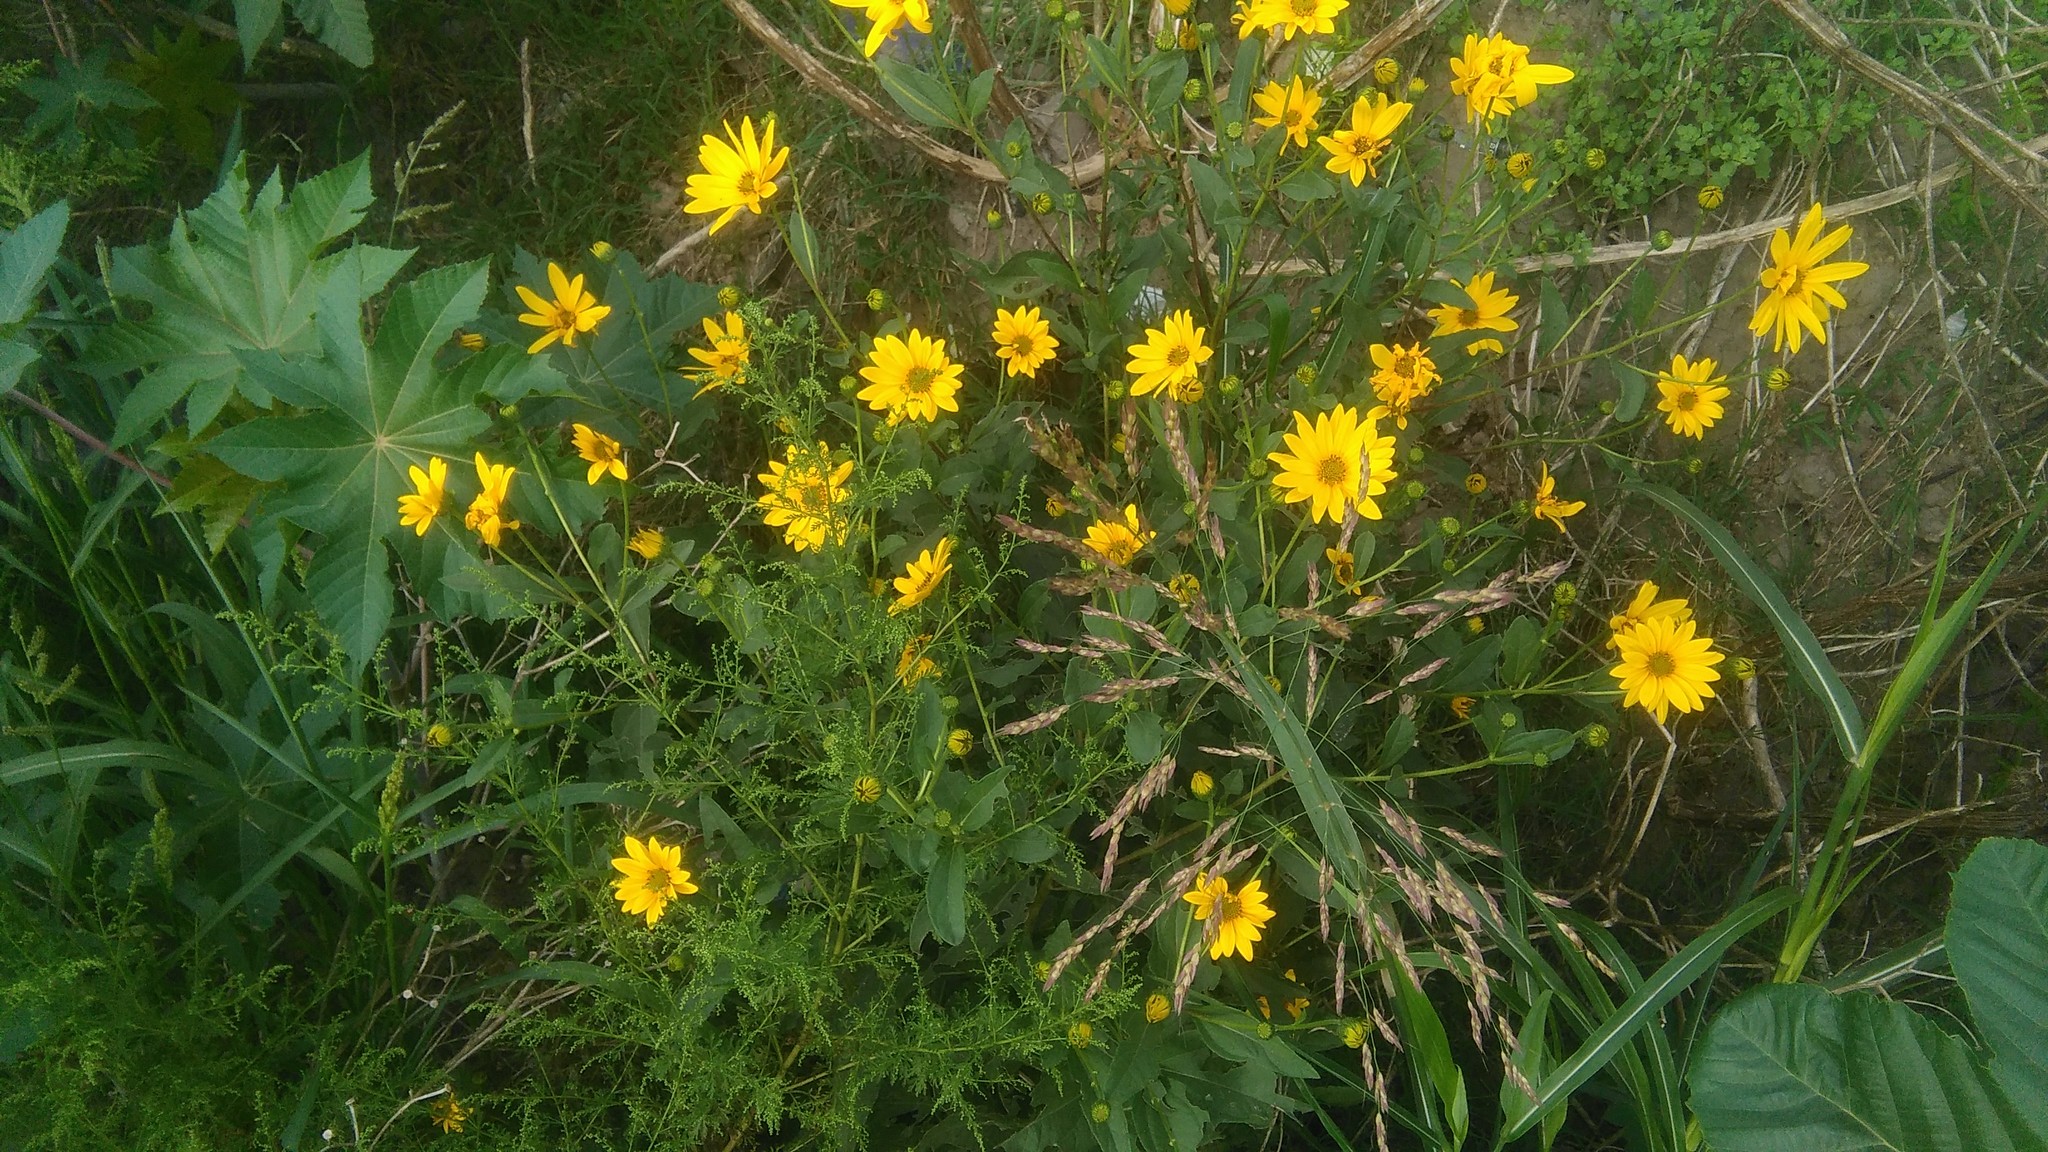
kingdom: Plantae
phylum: Tracheophyta
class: Magnoliopsida
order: Asterales
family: Asteraceae
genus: Grindelia
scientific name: Grindelia pulchella
